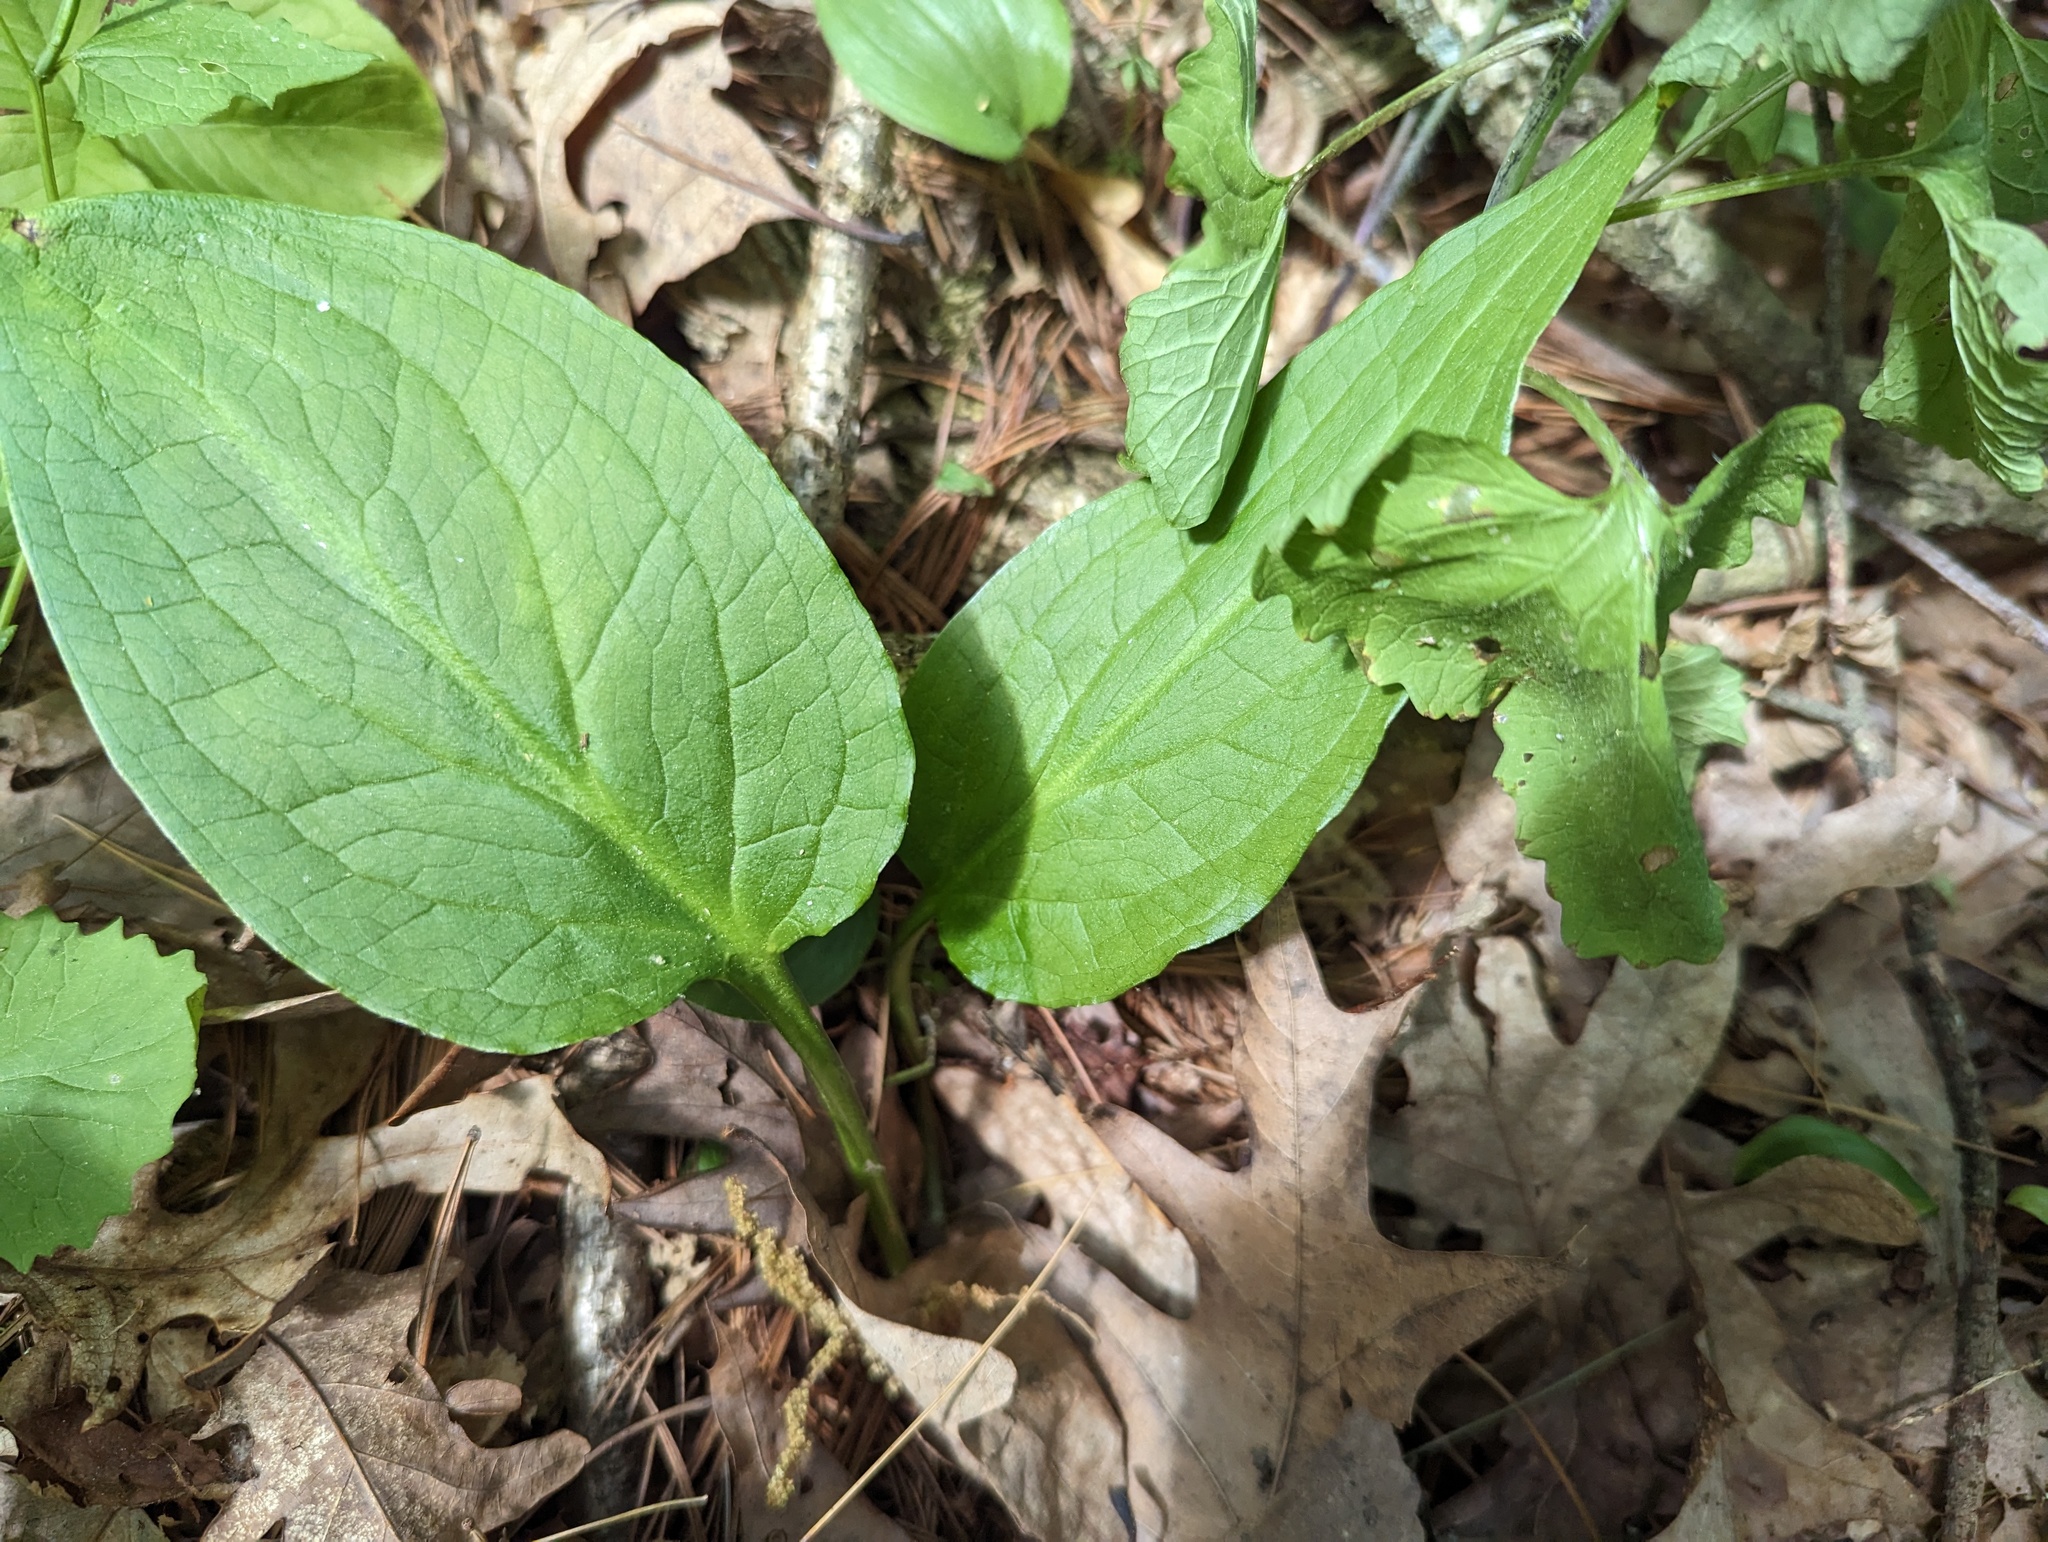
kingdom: Plantae
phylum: Tracheophyta
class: Liliopsida
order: Alismatales
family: Araceae
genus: Symplocarpus
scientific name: Symplocarpus foetidus
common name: Eastern skunk cabbage
